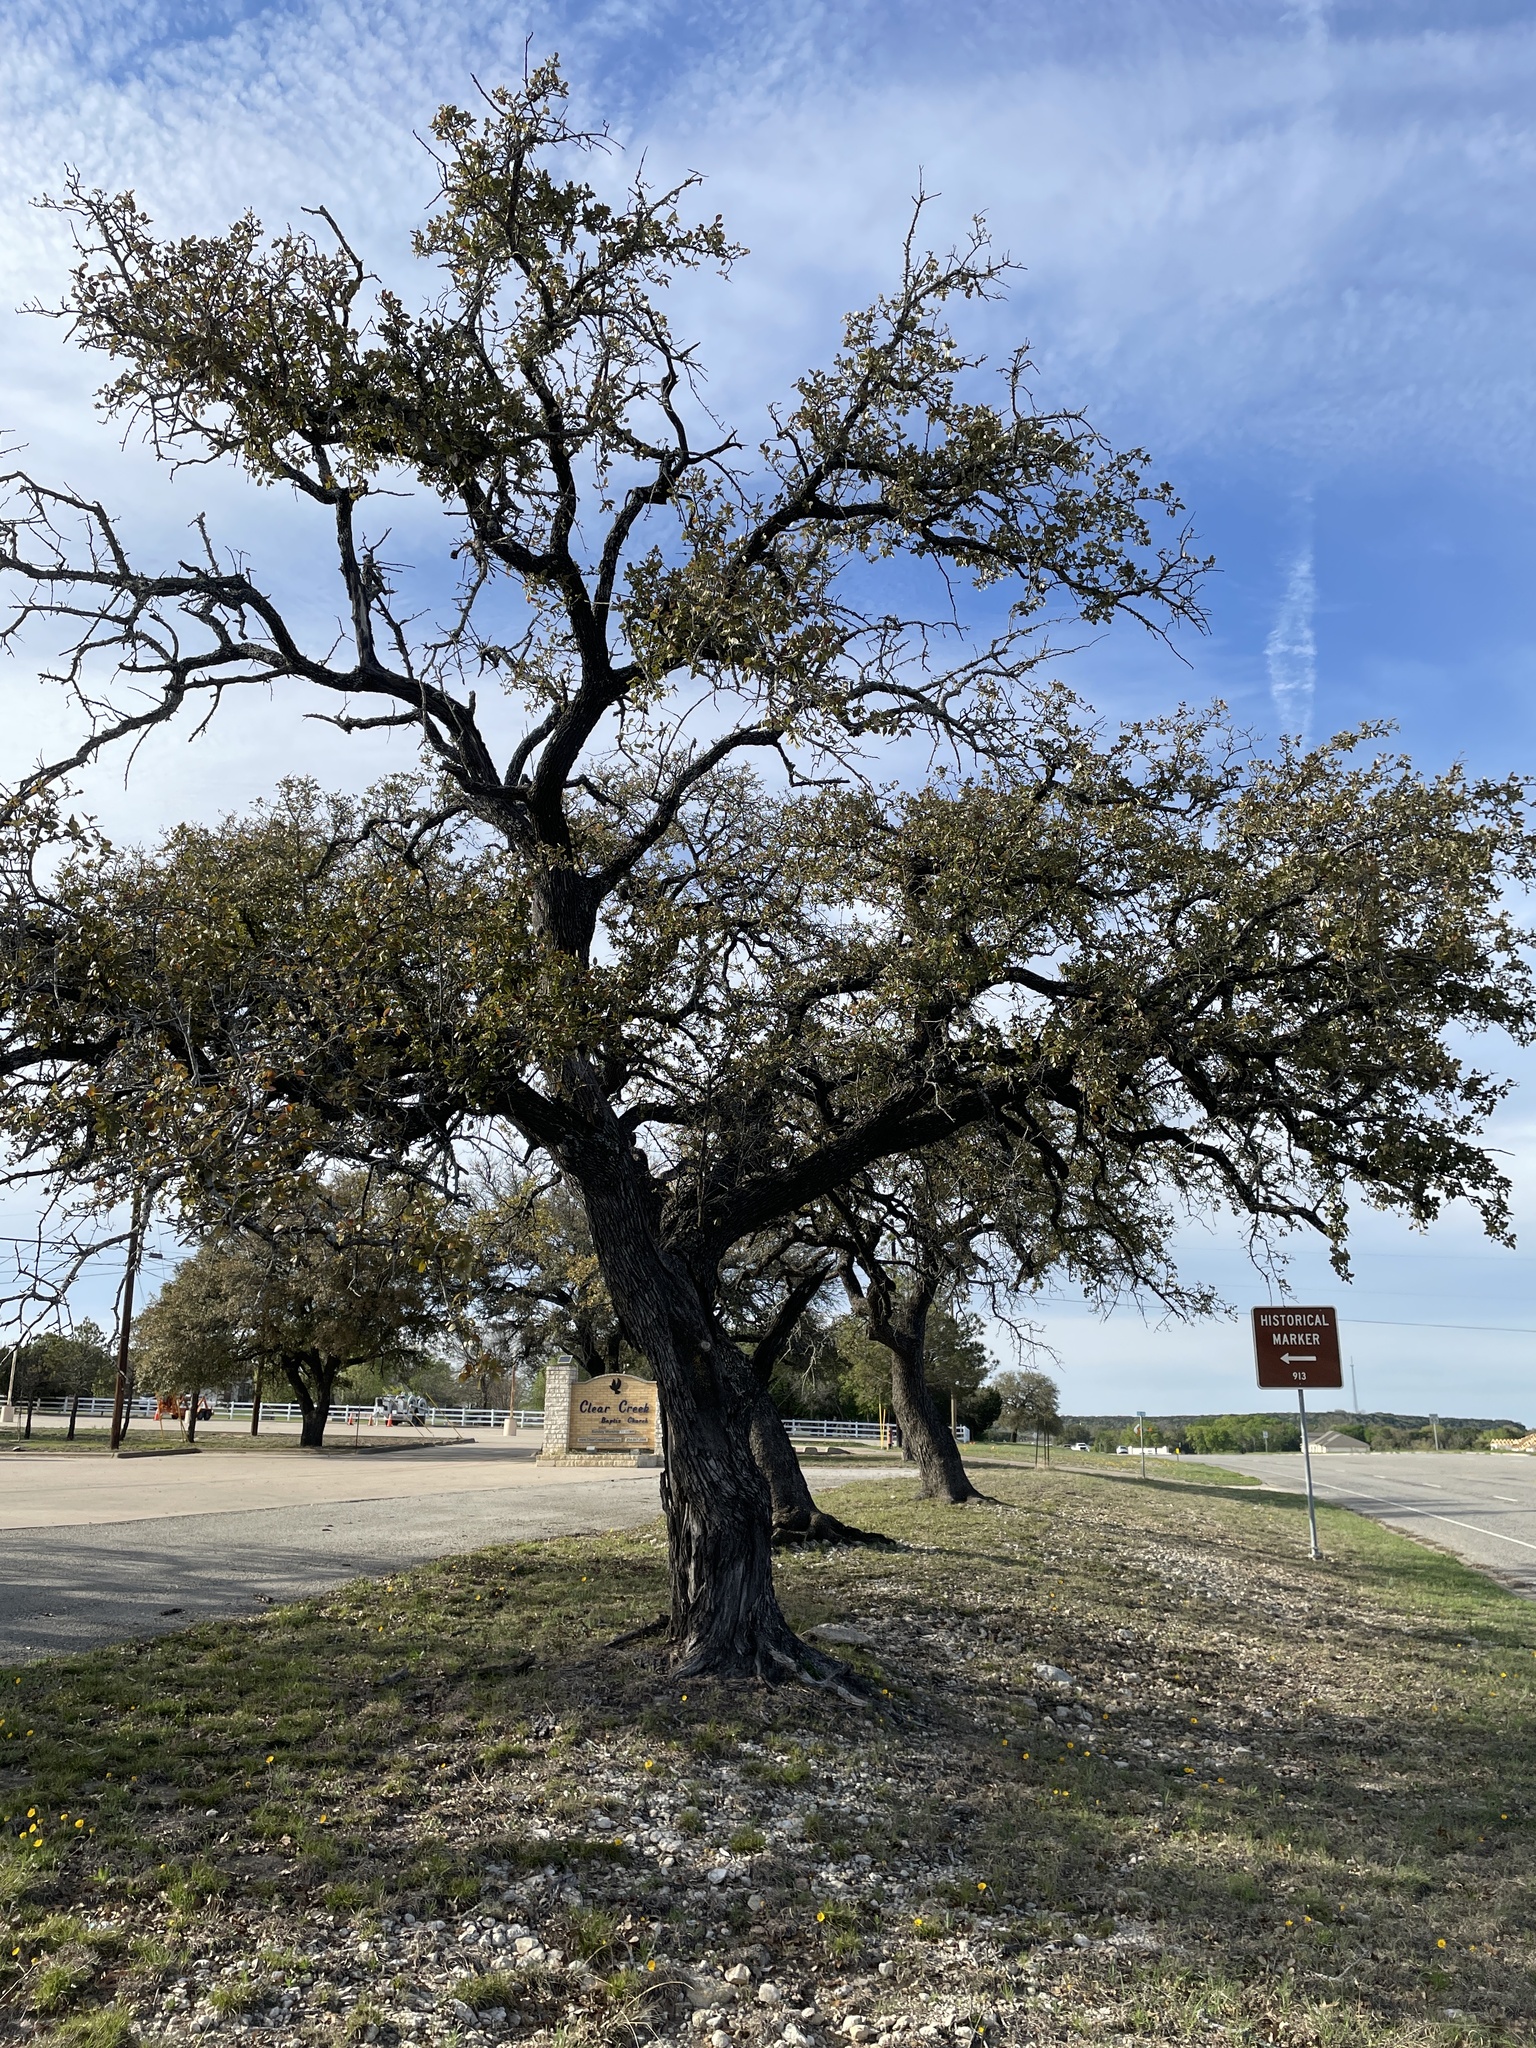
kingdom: Plantae
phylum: Tracheophyta
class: Magnoliopsida
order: Fagales
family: Fagaceae
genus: Quercus
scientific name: Quercus fusiformis
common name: Texas live oak
